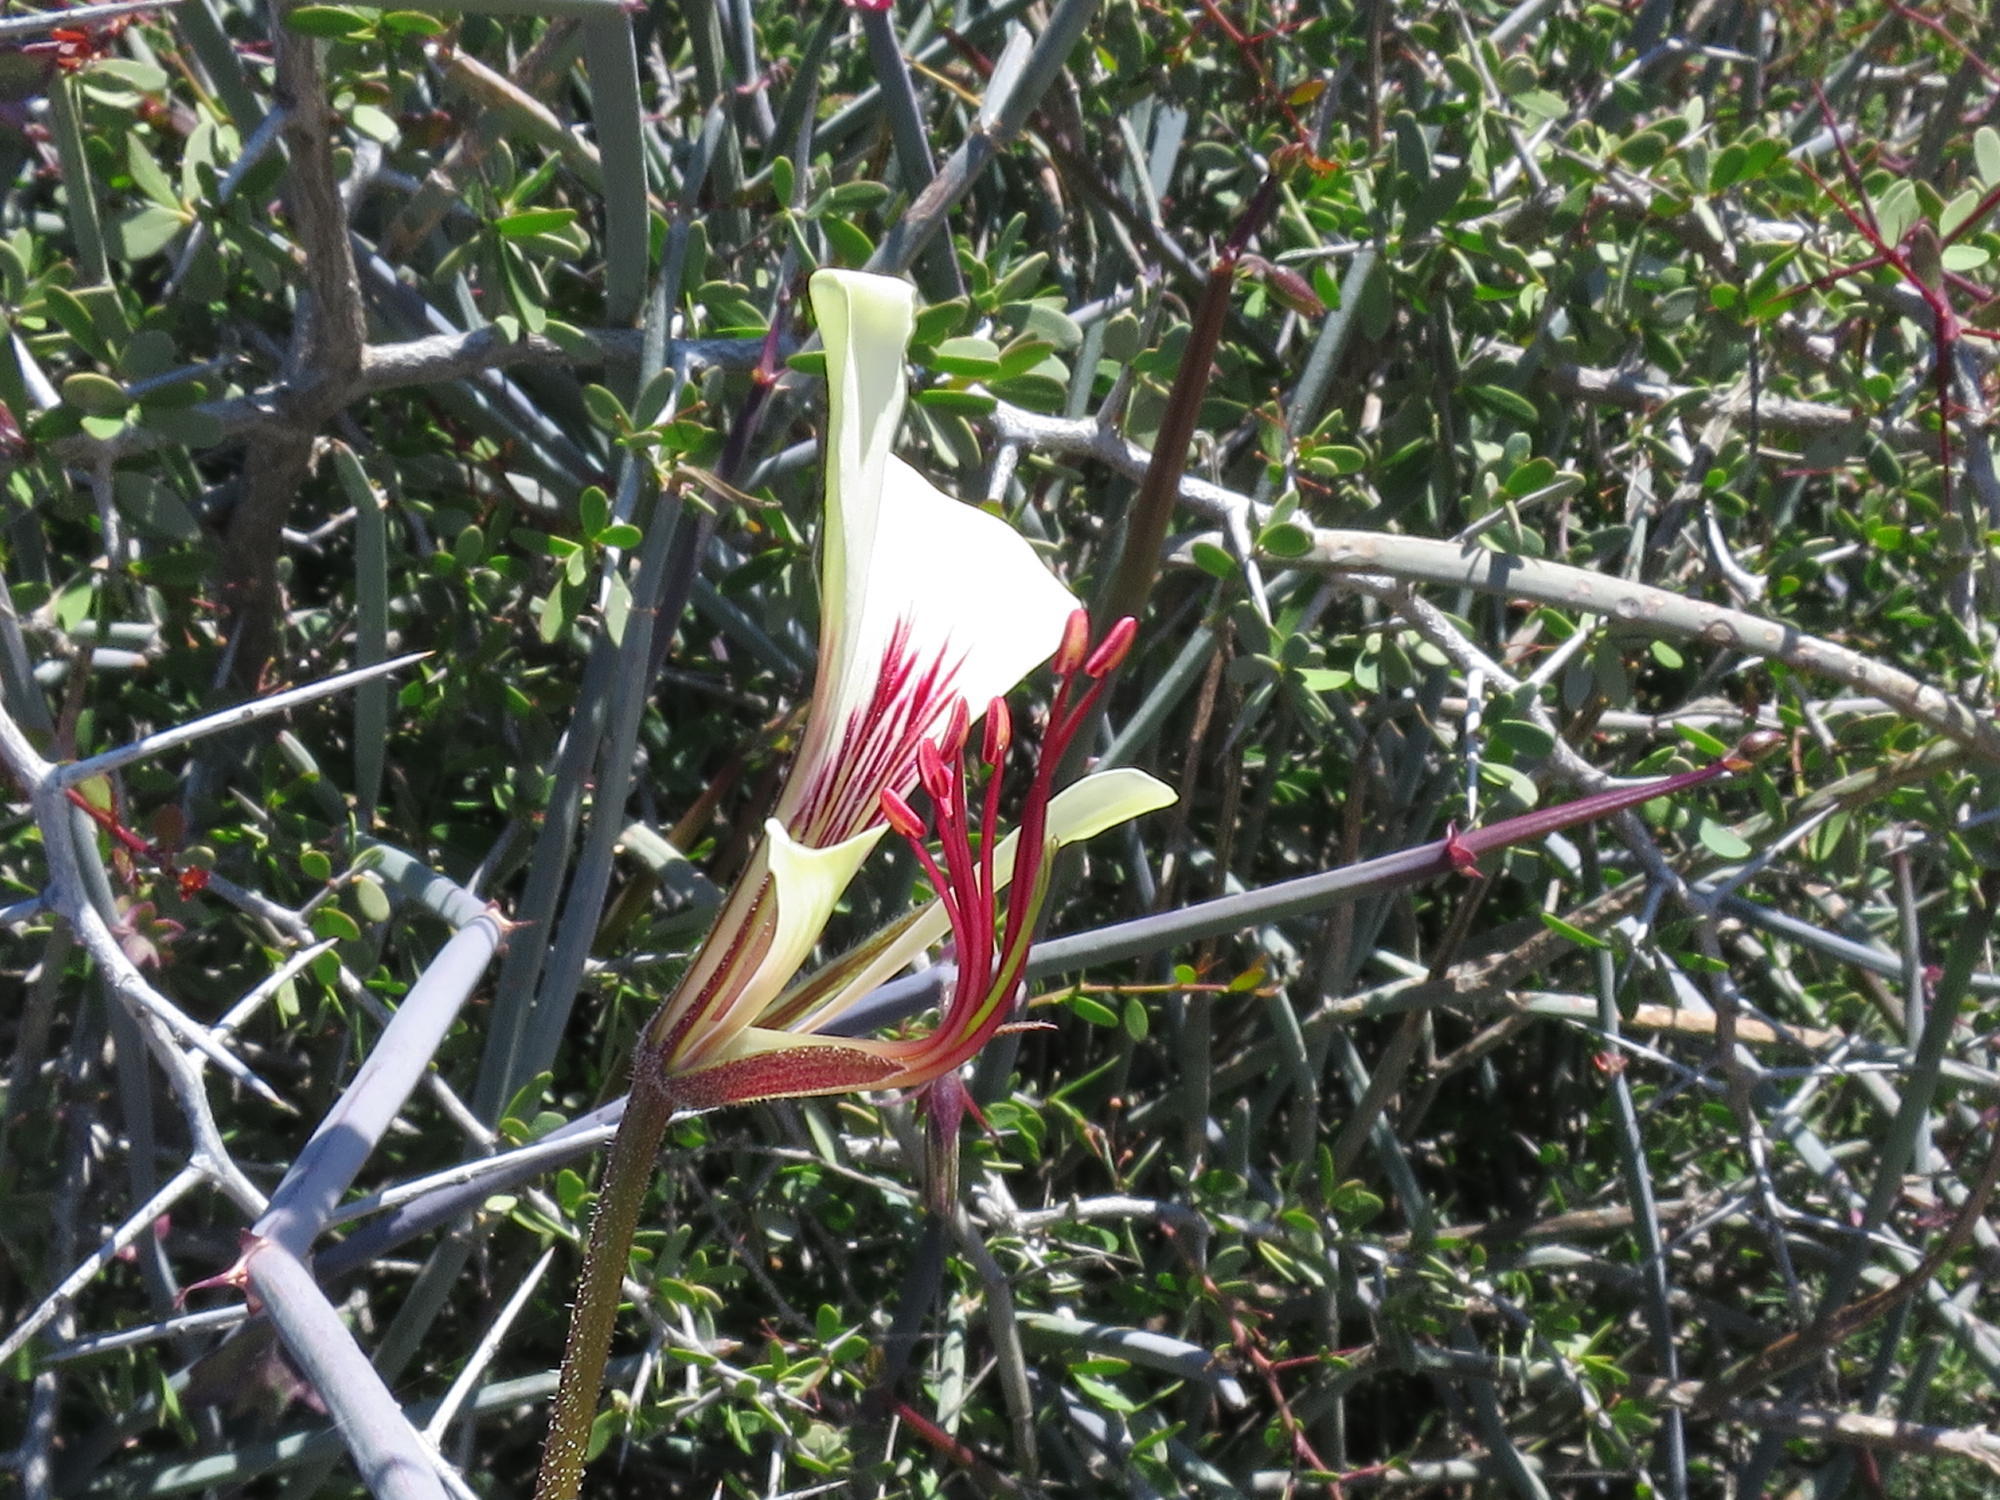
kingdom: Plantae
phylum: Tracheophyta
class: Magnoliopsida
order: Geraniales
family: Geraniaceae
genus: Pelargonium
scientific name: Pelargonium tetragonum
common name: Square-stack crane's-bill
